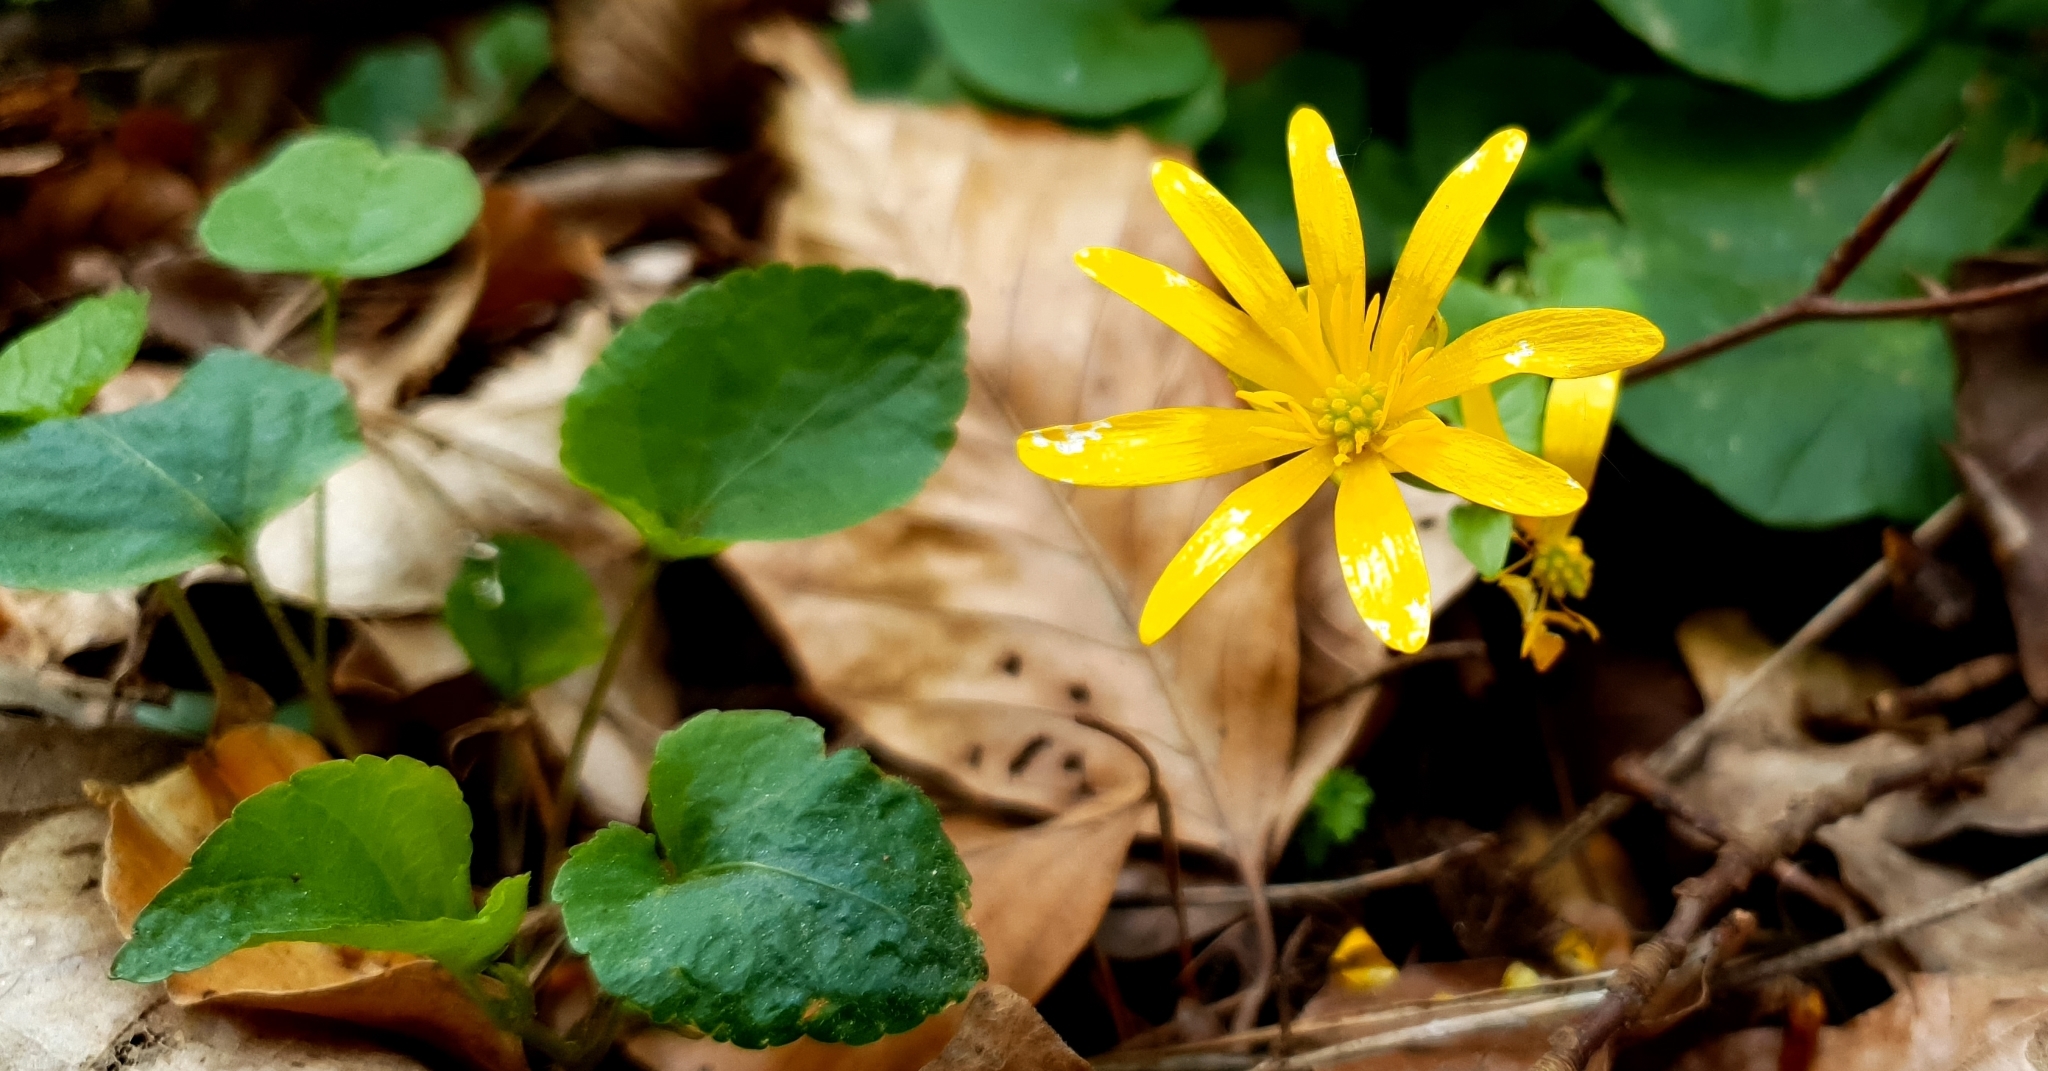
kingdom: Plantae
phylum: Tracheophyta
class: Magnoliopsida
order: Ranunculales
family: Ranunculaceae
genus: Ficaria
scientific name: Ficaria verna
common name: Lesser celandine
